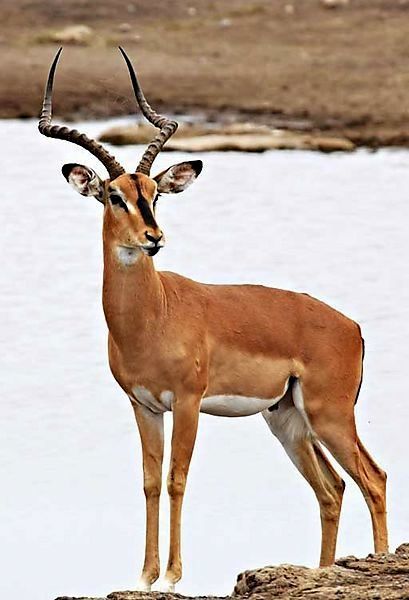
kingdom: Animalia
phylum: Chordata
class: Mammalia
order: Artiodactyla
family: Bovidae
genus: Aepyceros
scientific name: Aepyceros melampus
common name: Impala
